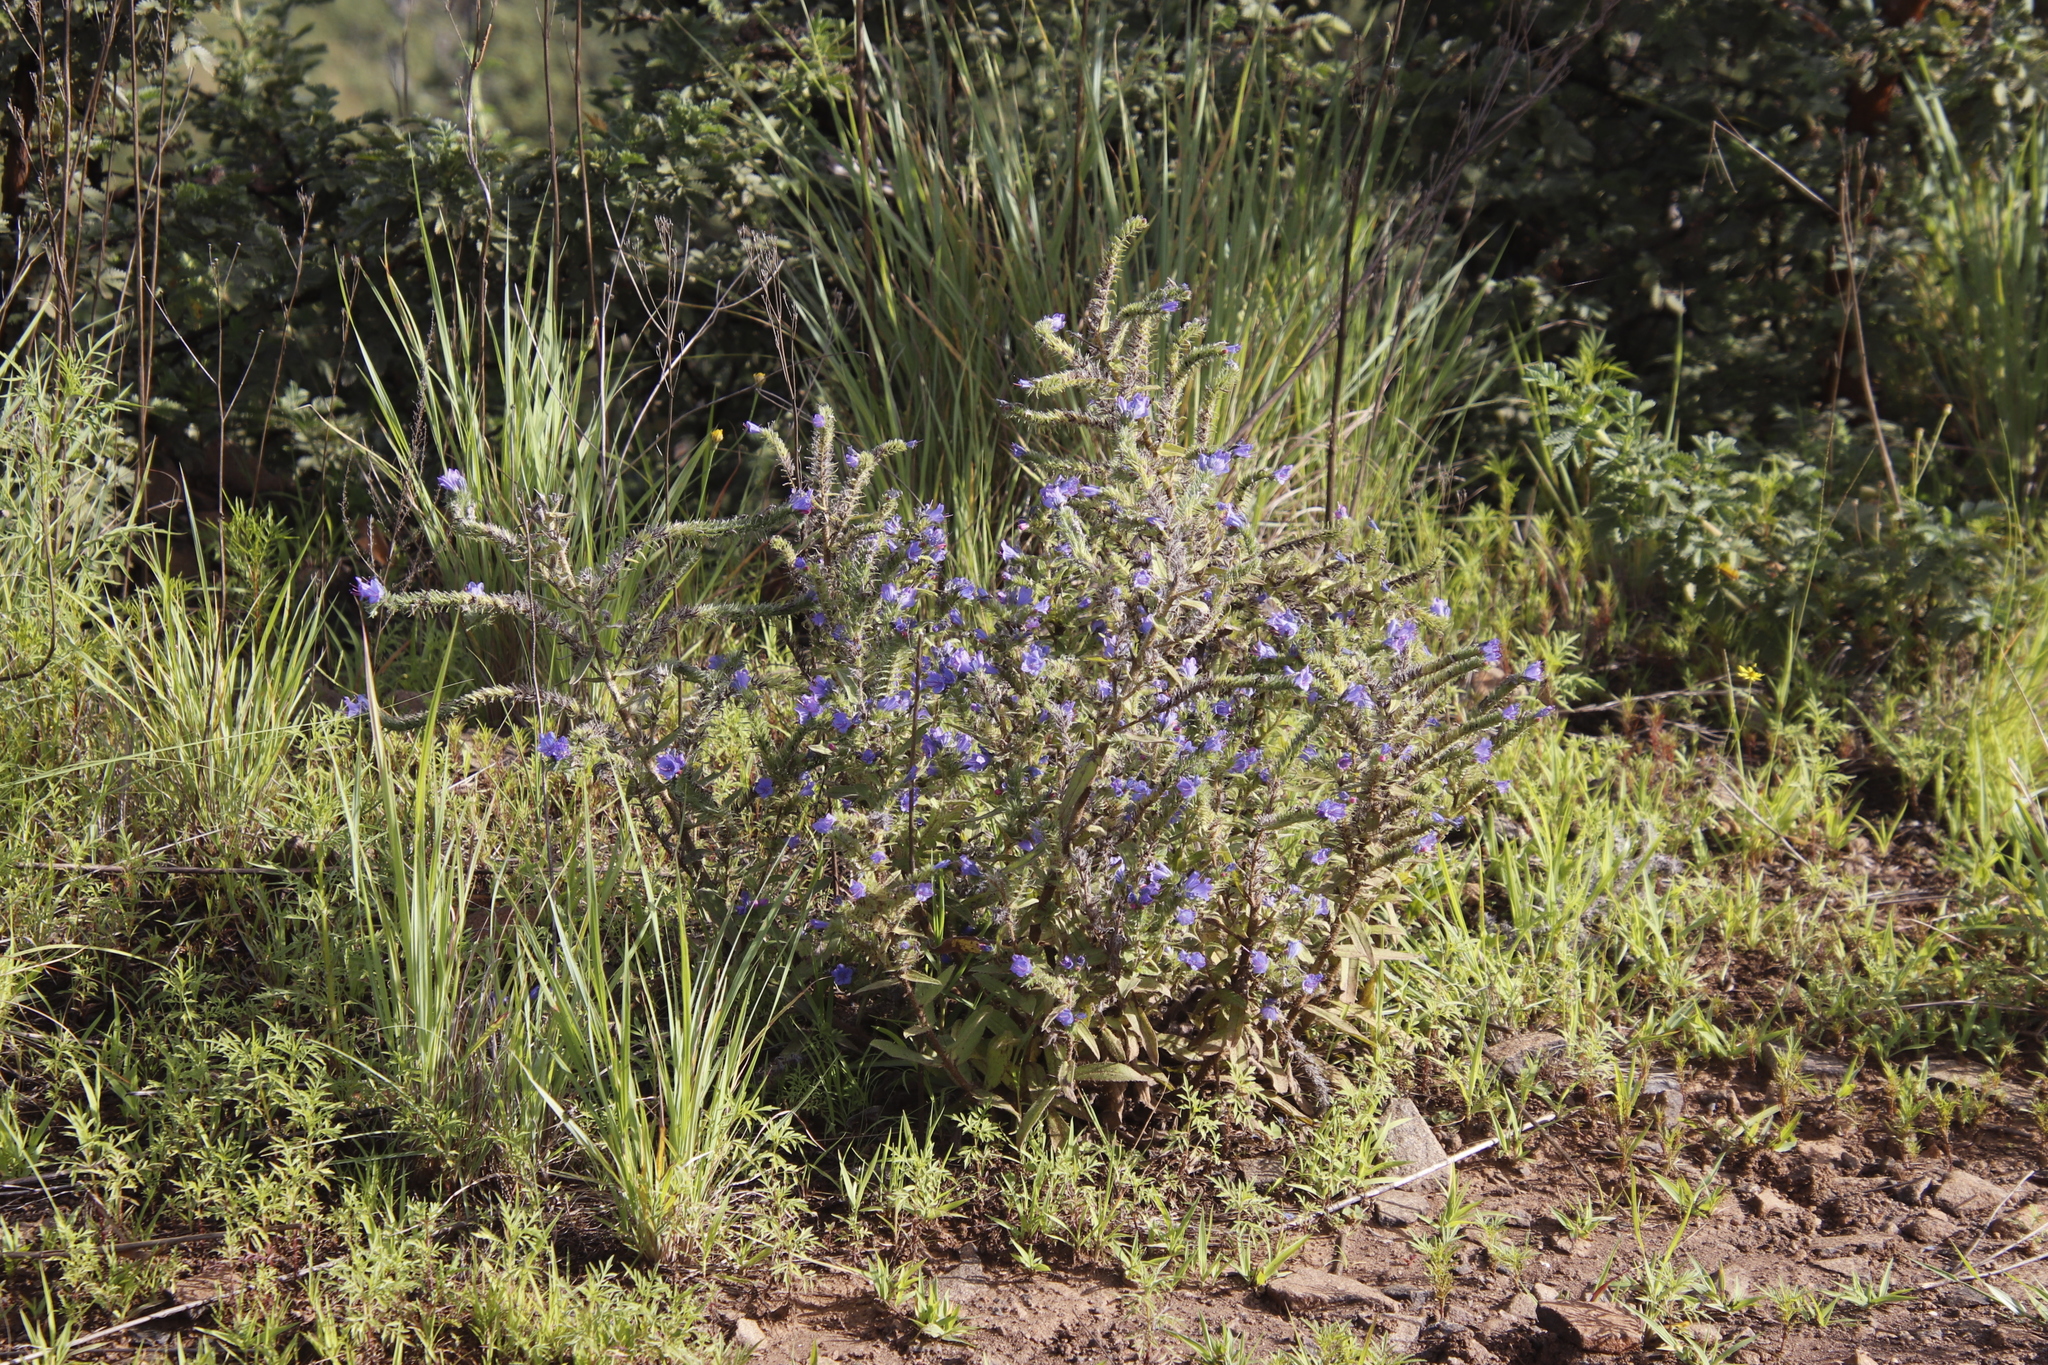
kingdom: Plantae
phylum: Tracheophyta
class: Magnoliopsida
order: Boraginales
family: Boraginaceae
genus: Echium
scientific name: Echium vulgare
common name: Common viper's bugloss
